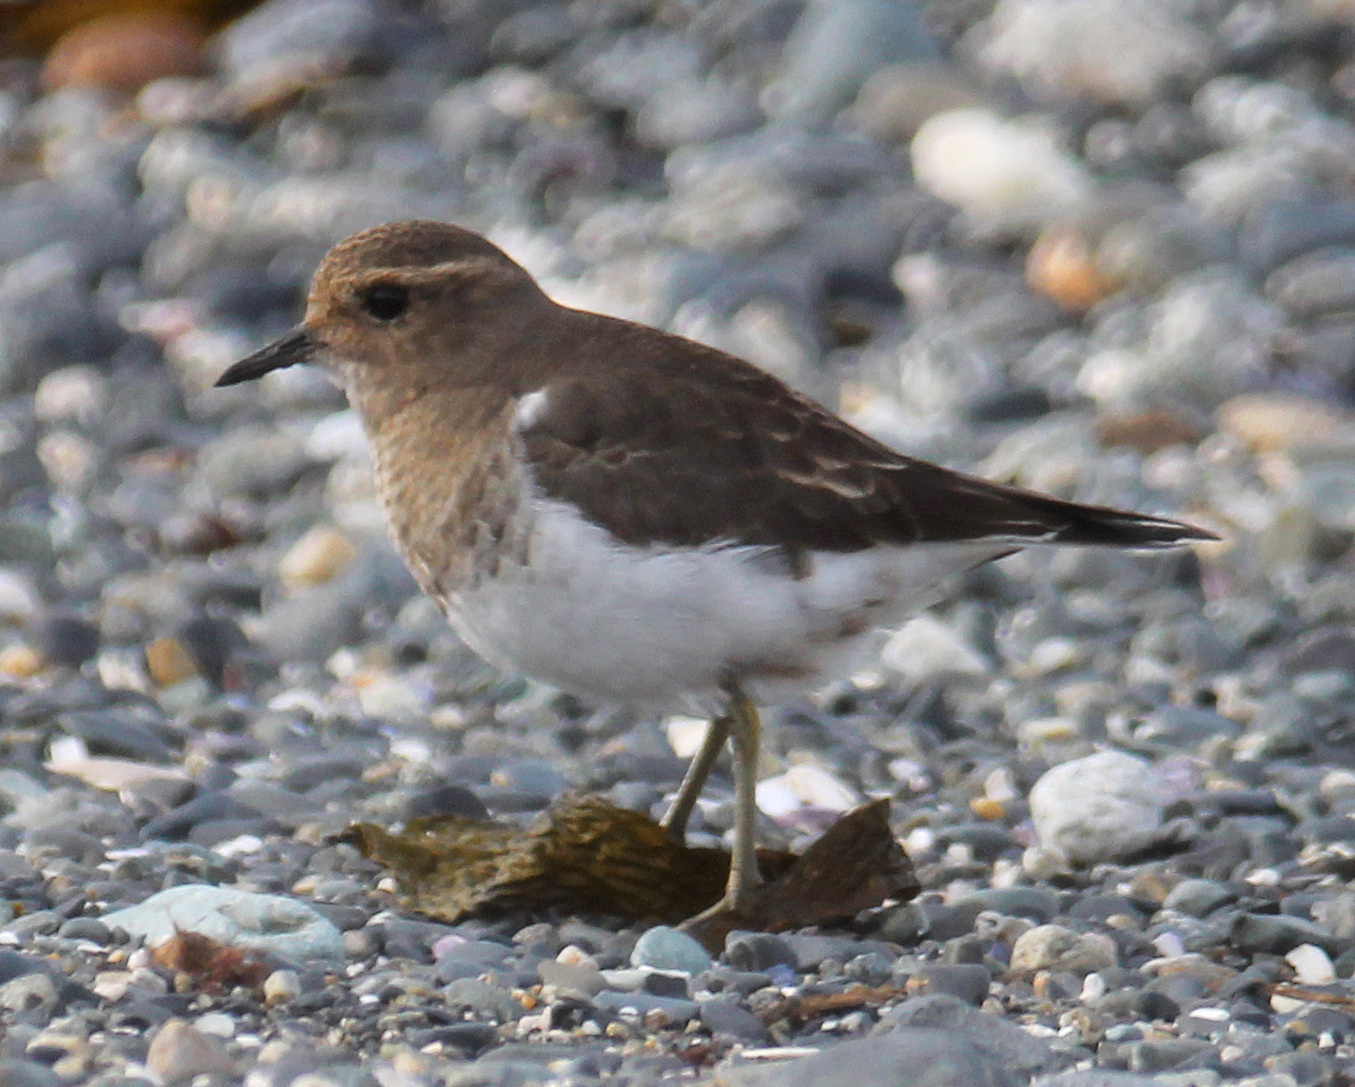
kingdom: Animalia
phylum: Chordata
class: Aves
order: Charadriiformes
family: Charadriidae
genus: Charadrius
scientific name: Charadrius modestus
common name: Rufous-chested plover
